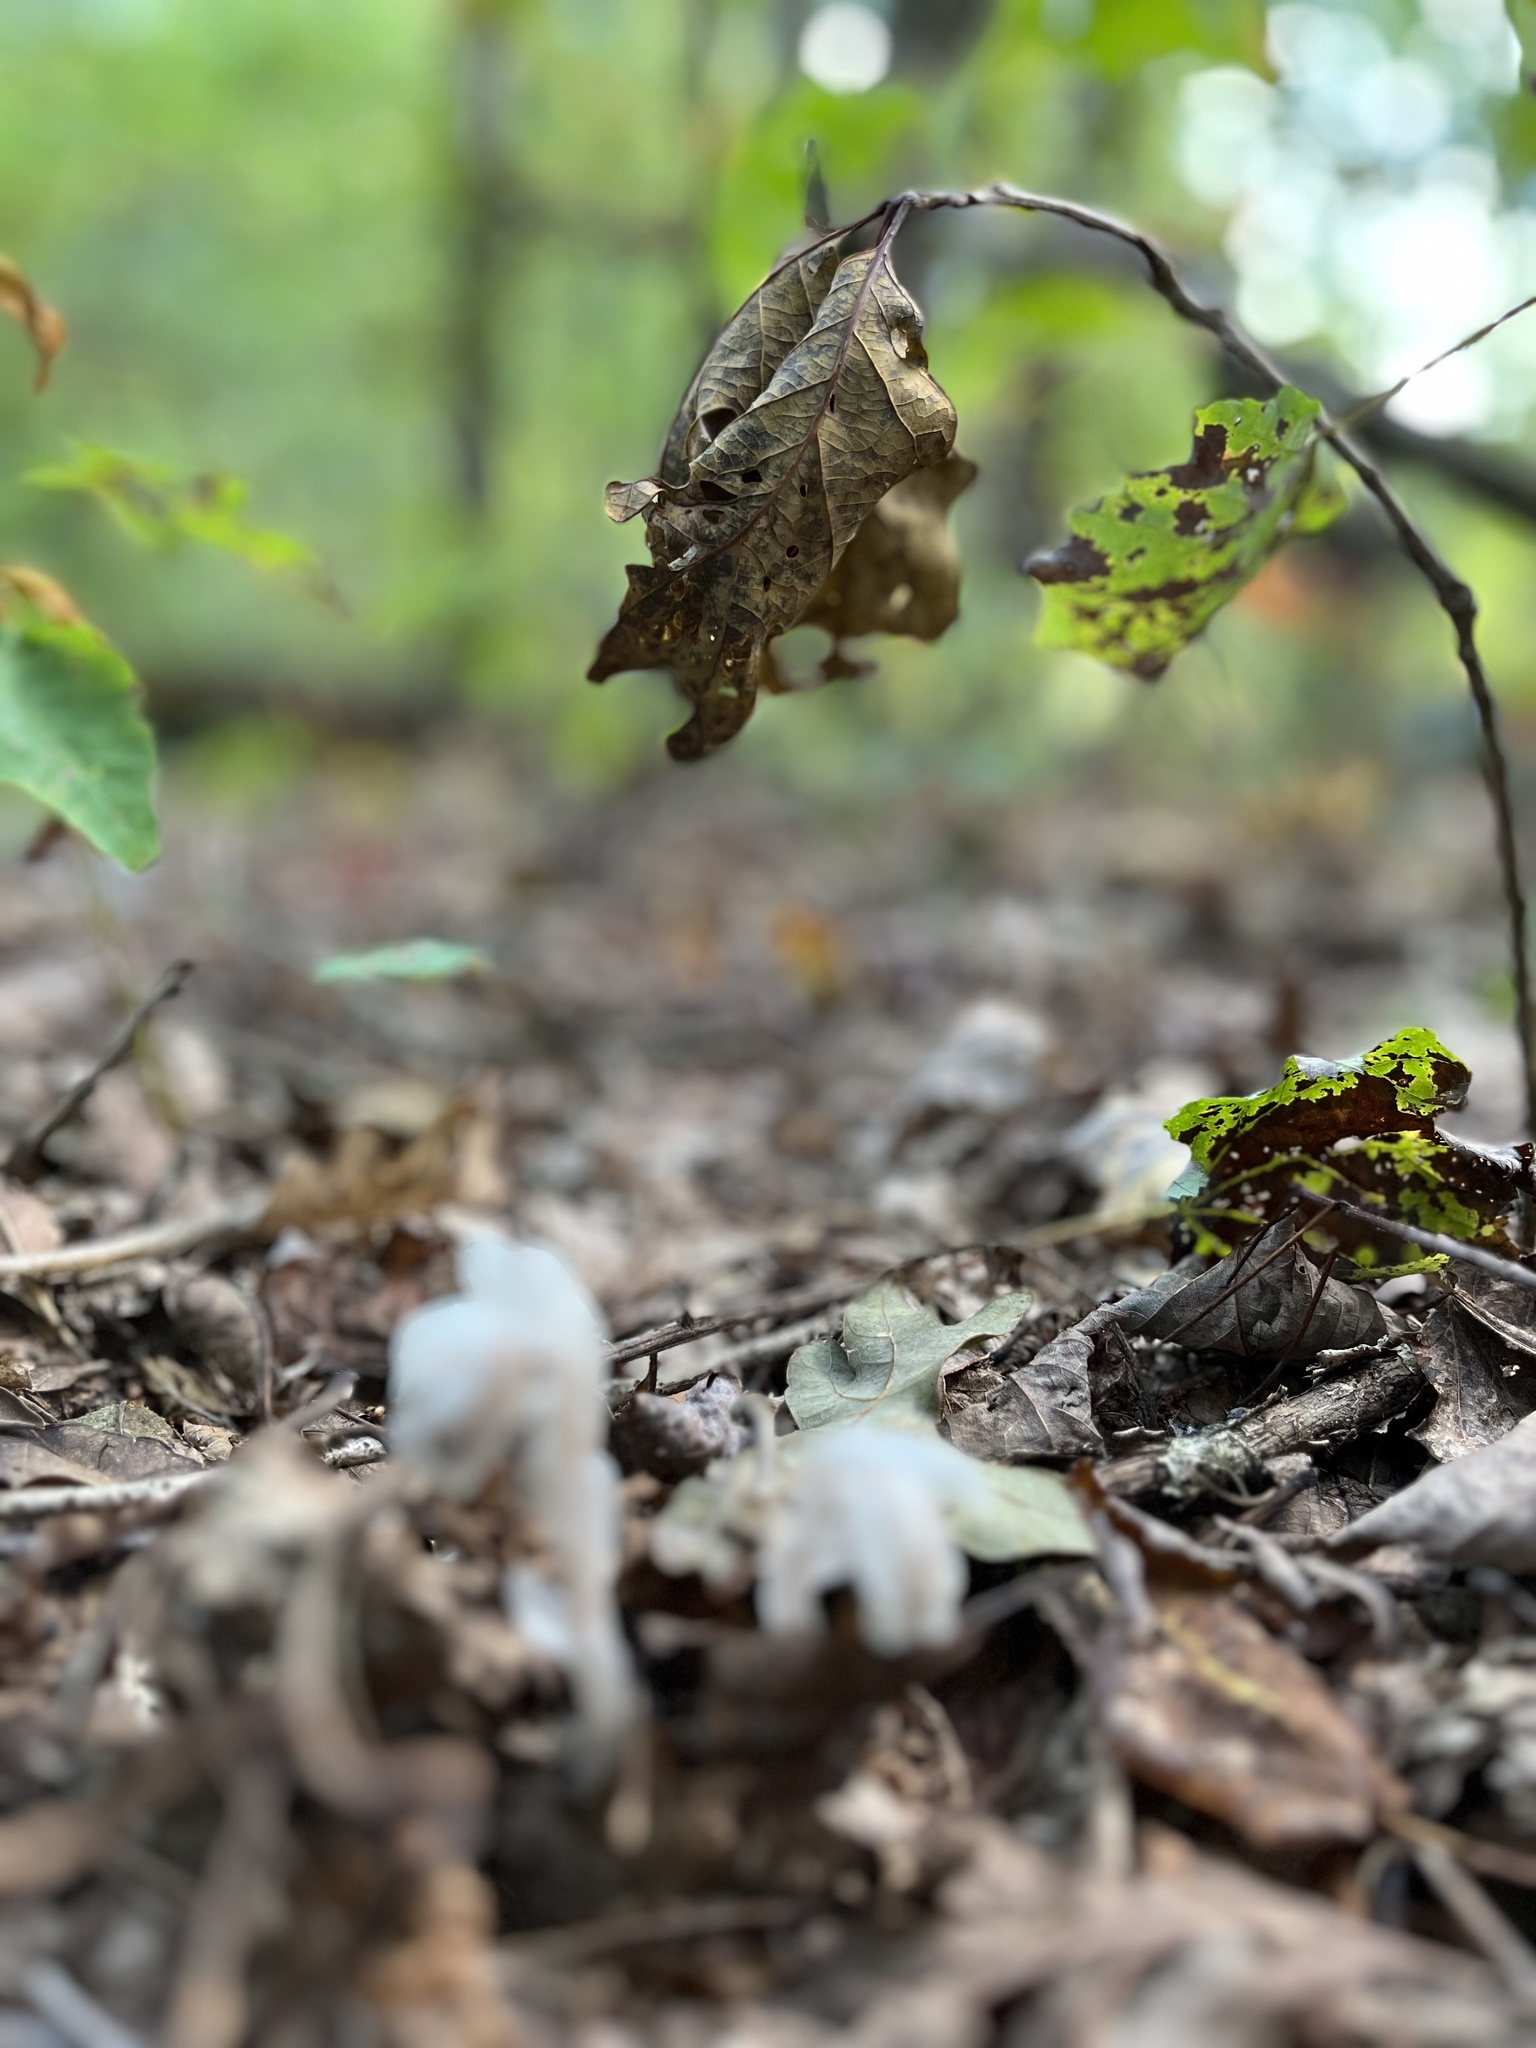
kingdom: Plantae
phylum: Tracheophyta
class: Magnoliopsida
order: Ericales
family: Ericaceae
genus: Monotropa
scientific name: Monotropa uniflora
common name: Convulsion root
